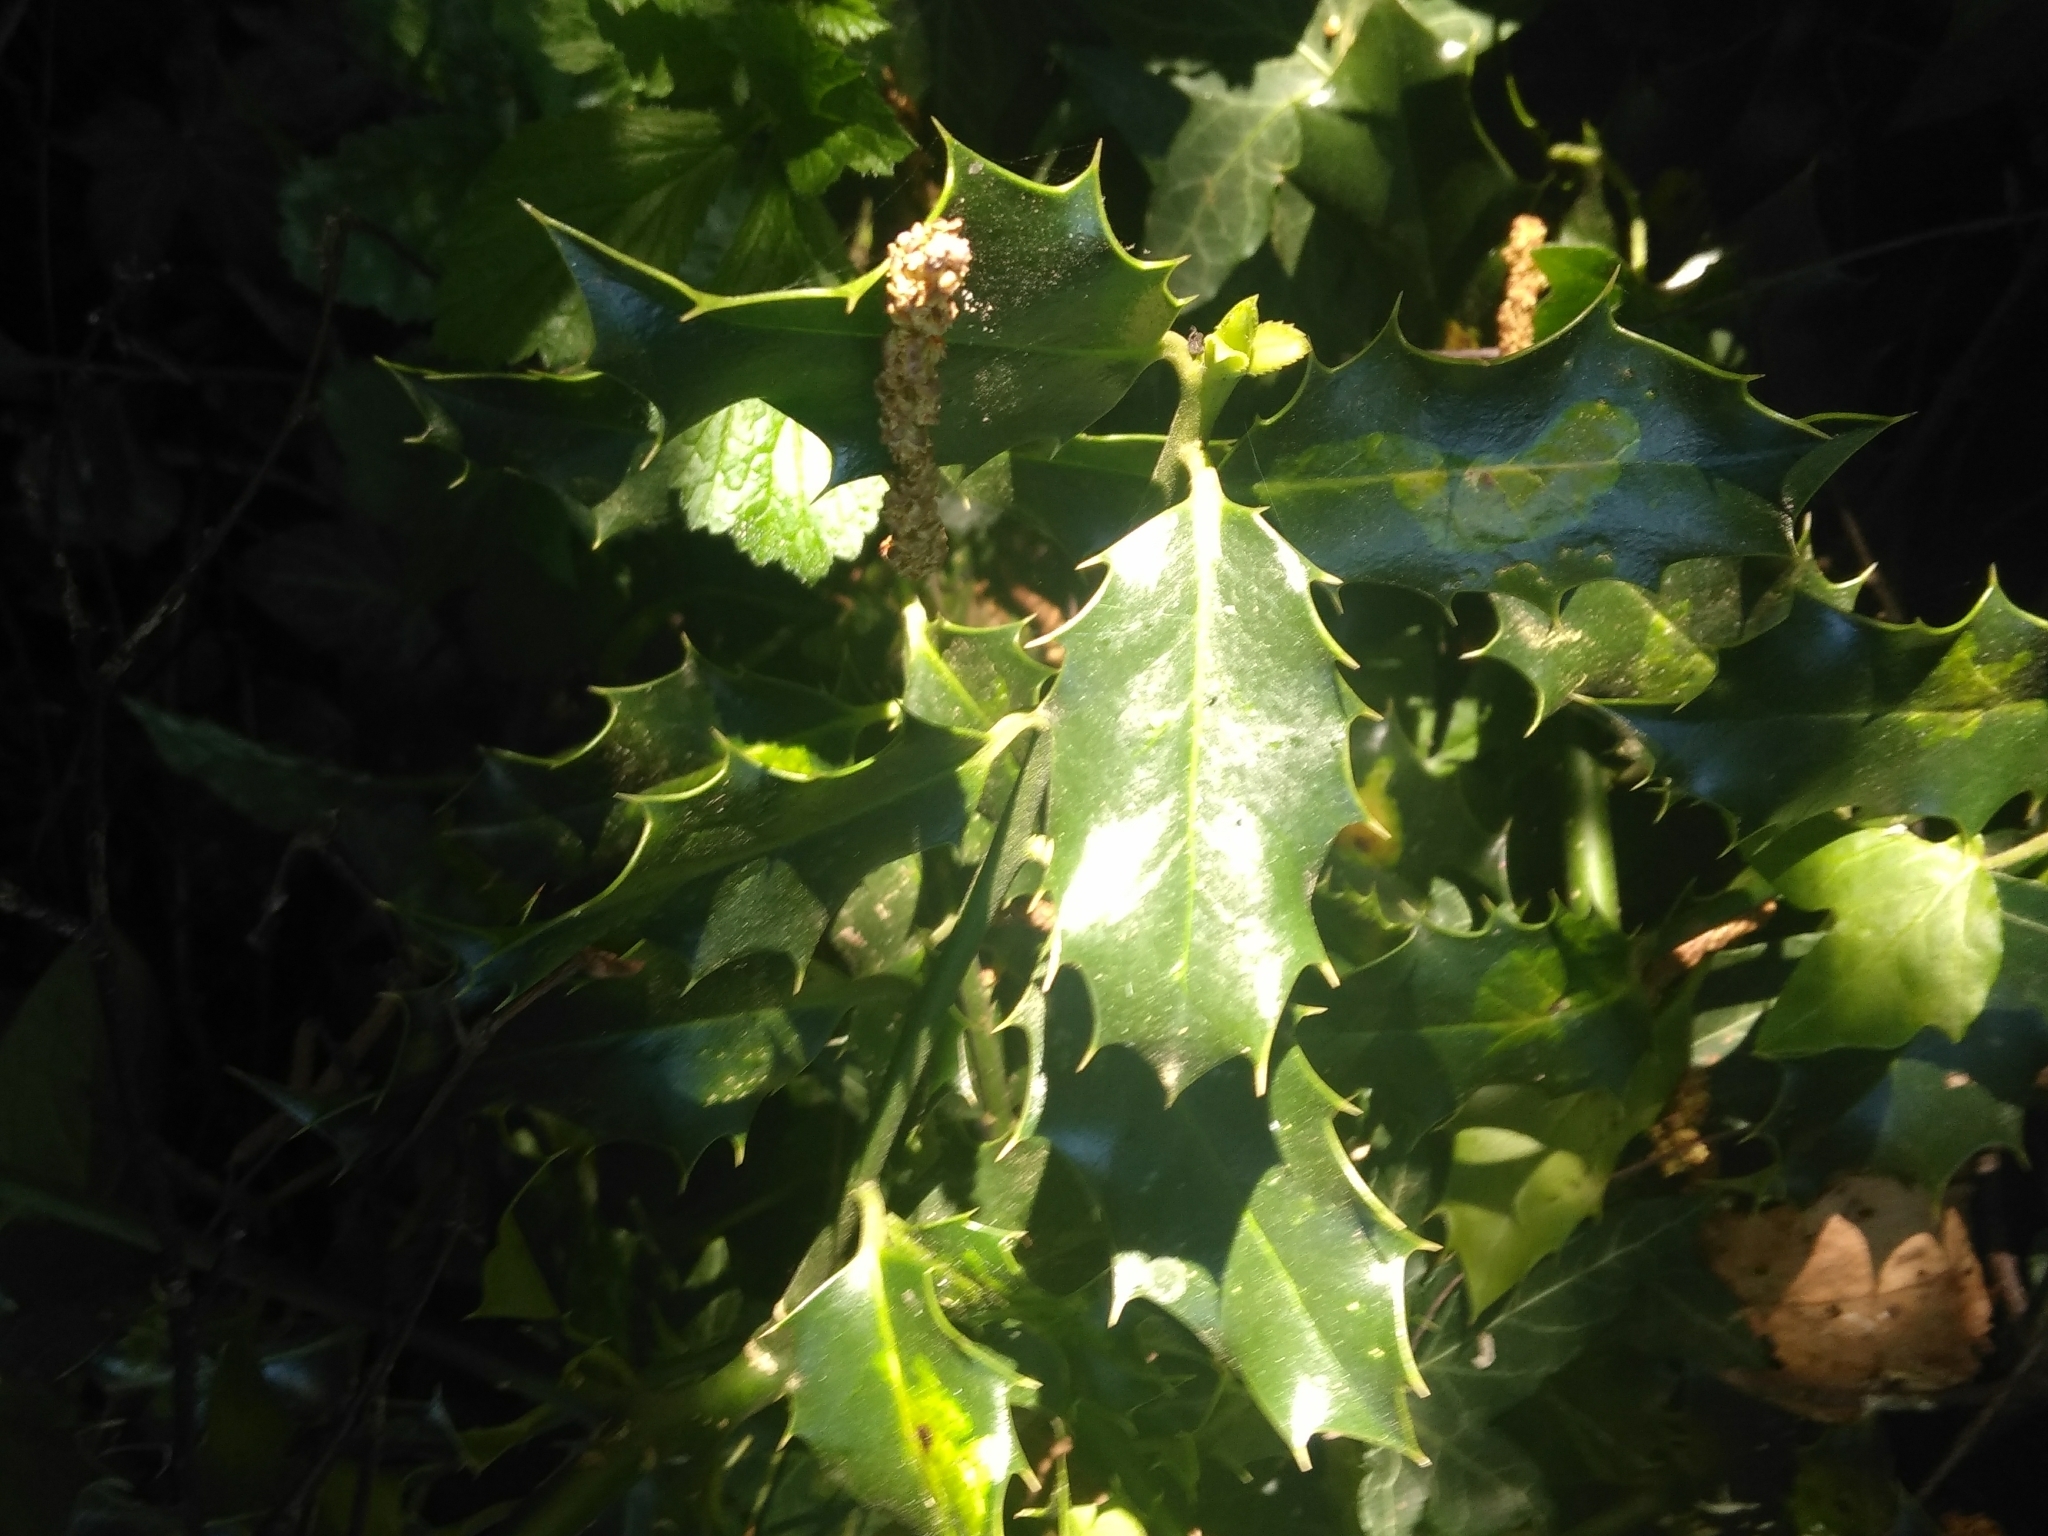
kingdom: Plantae
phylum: Tracheophyta
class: Magnoliopsida
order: Aquifoliales
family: Aquifoliaceae
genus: Ilex
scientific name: Ilex aquifolium
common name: English holly
